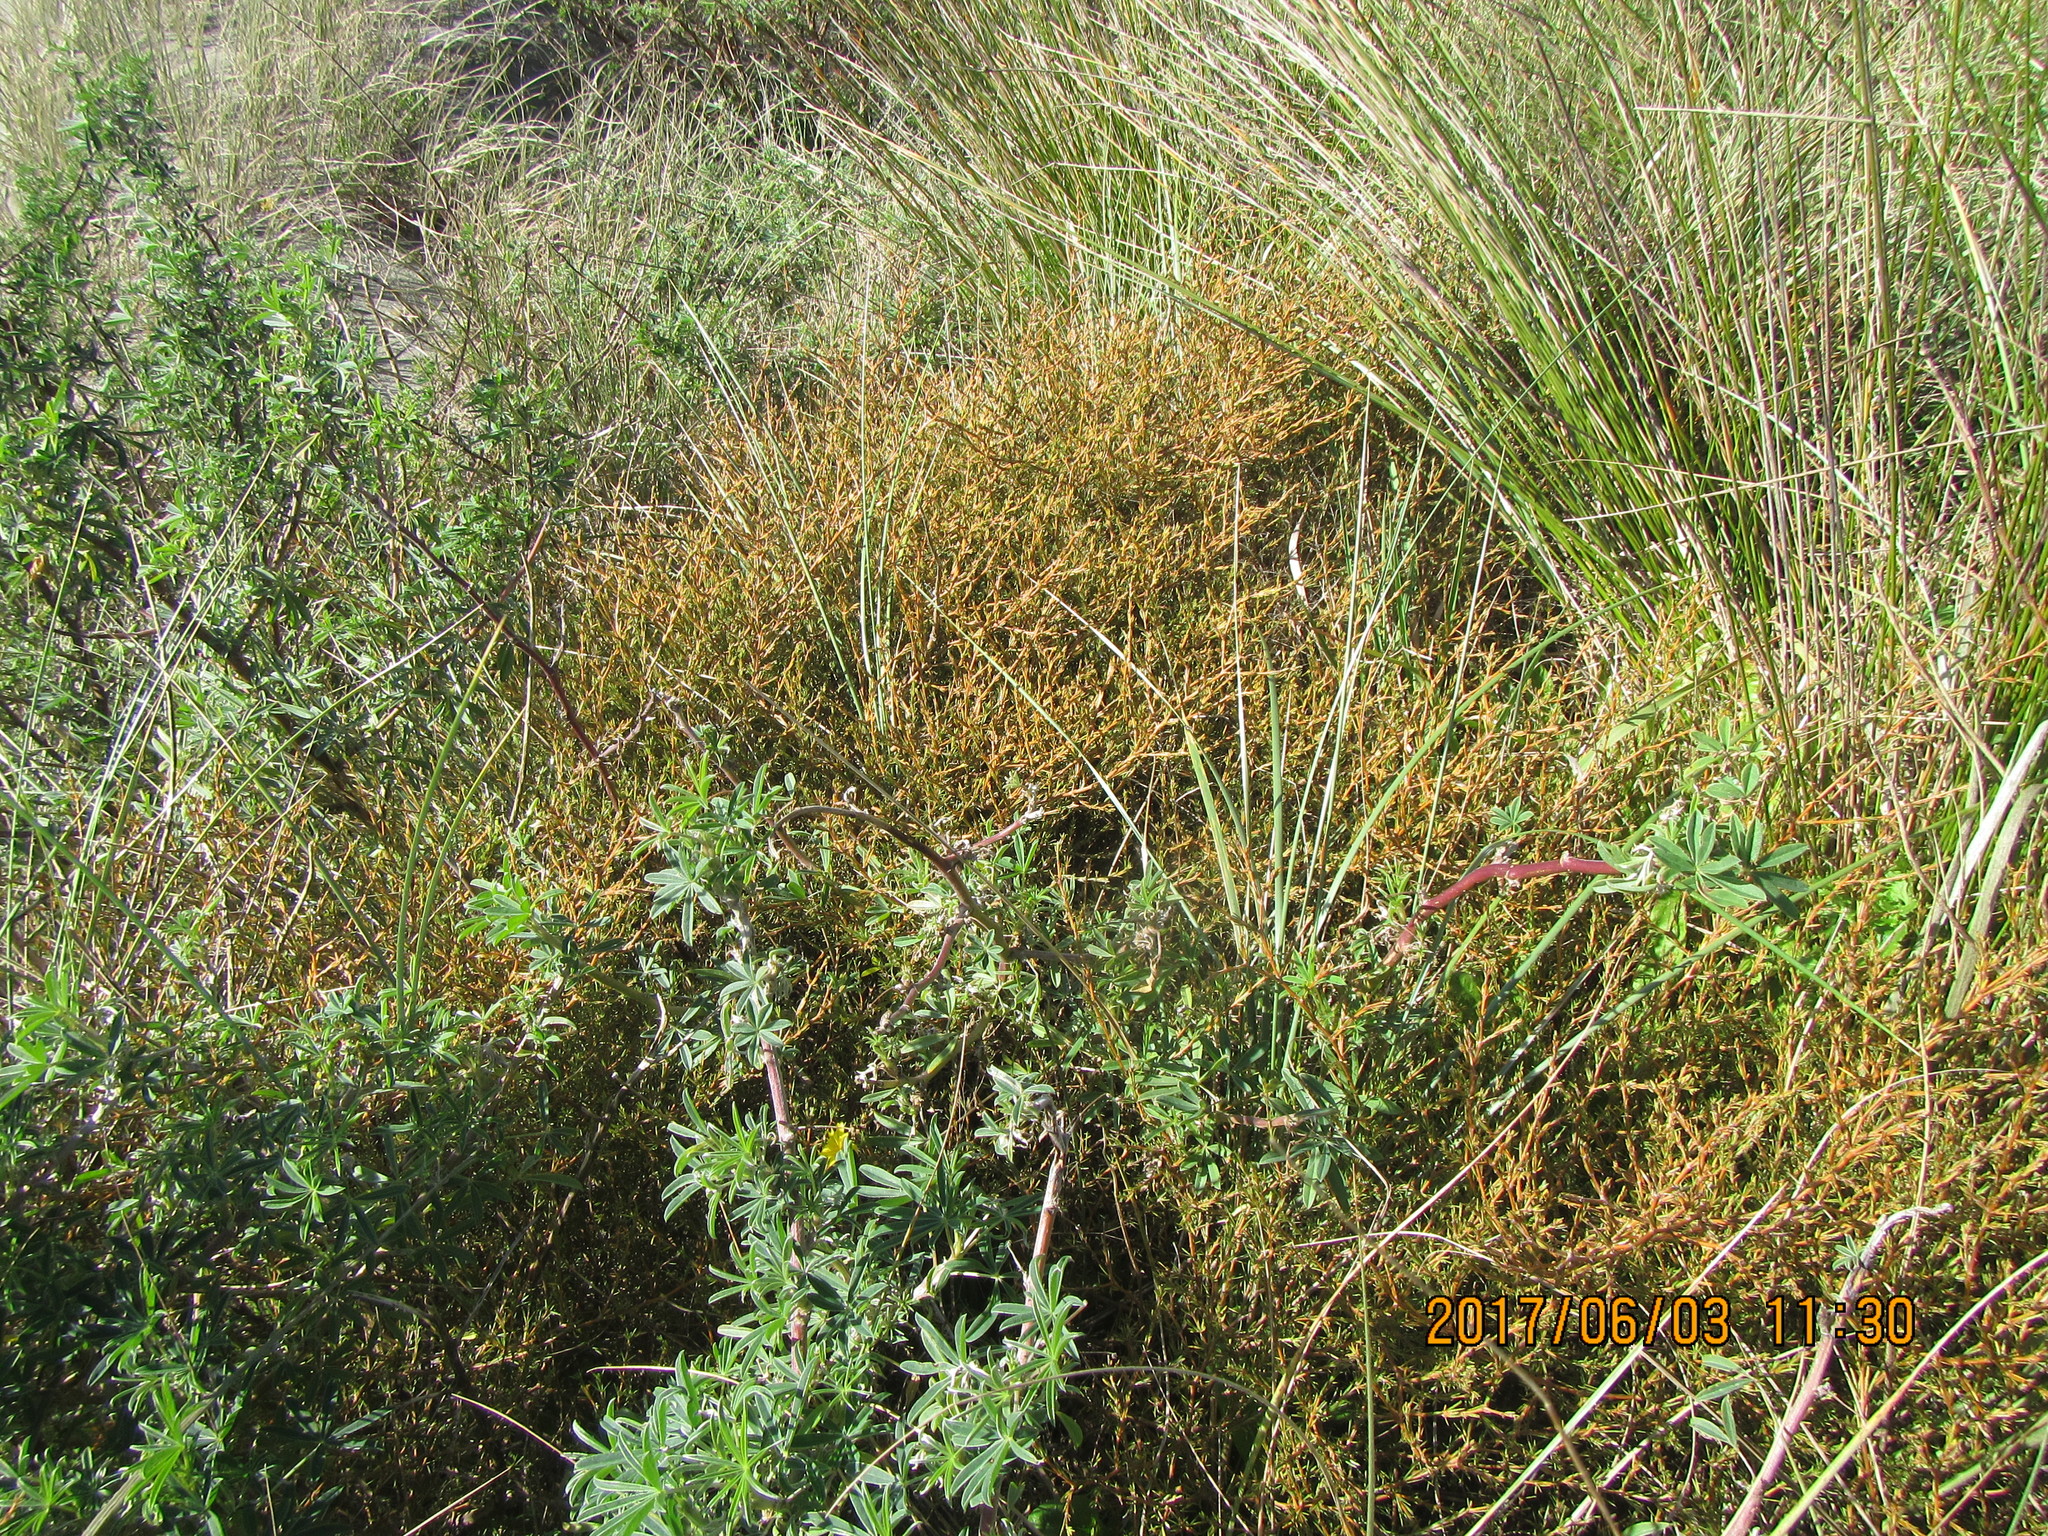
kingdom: Plantae
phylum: Tracheophyta
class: Magnoliopsida
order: Gentianales
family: Rubiaceae
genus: Coprosma
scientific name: Coprosma acerosa
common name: Sand coprosma
